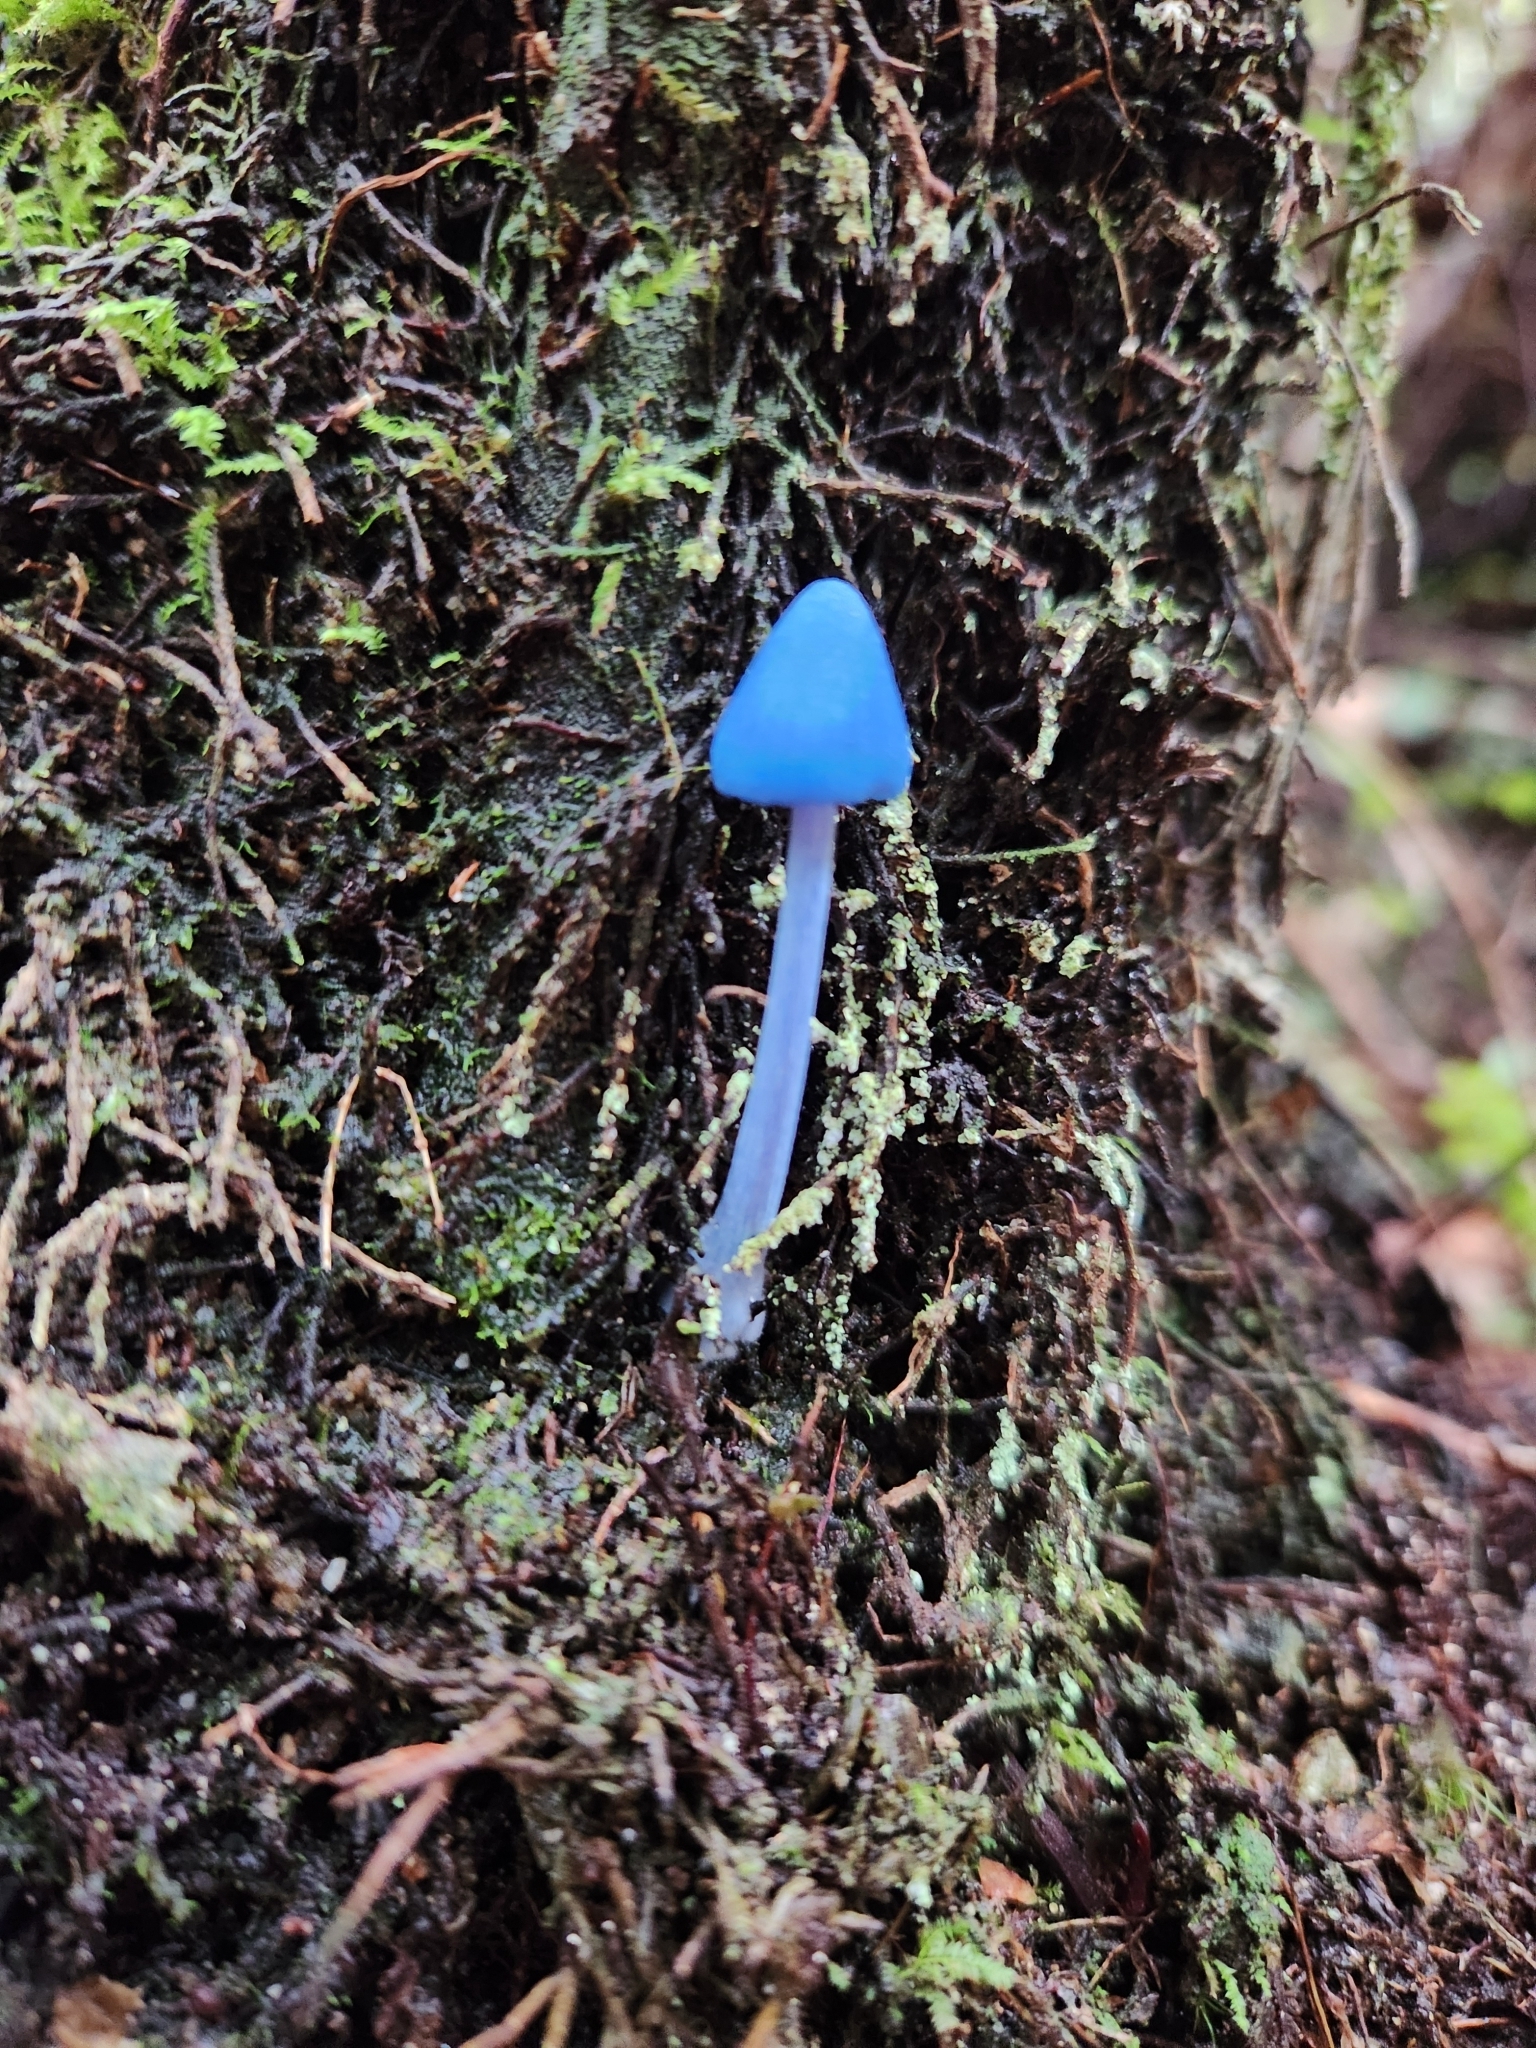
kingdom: Fungi
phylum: Basidiomycota
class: Agaricomycetes
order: Agaricales
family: Entolomataceae
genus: Entoloma
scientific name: Entoloma hochstetteri
